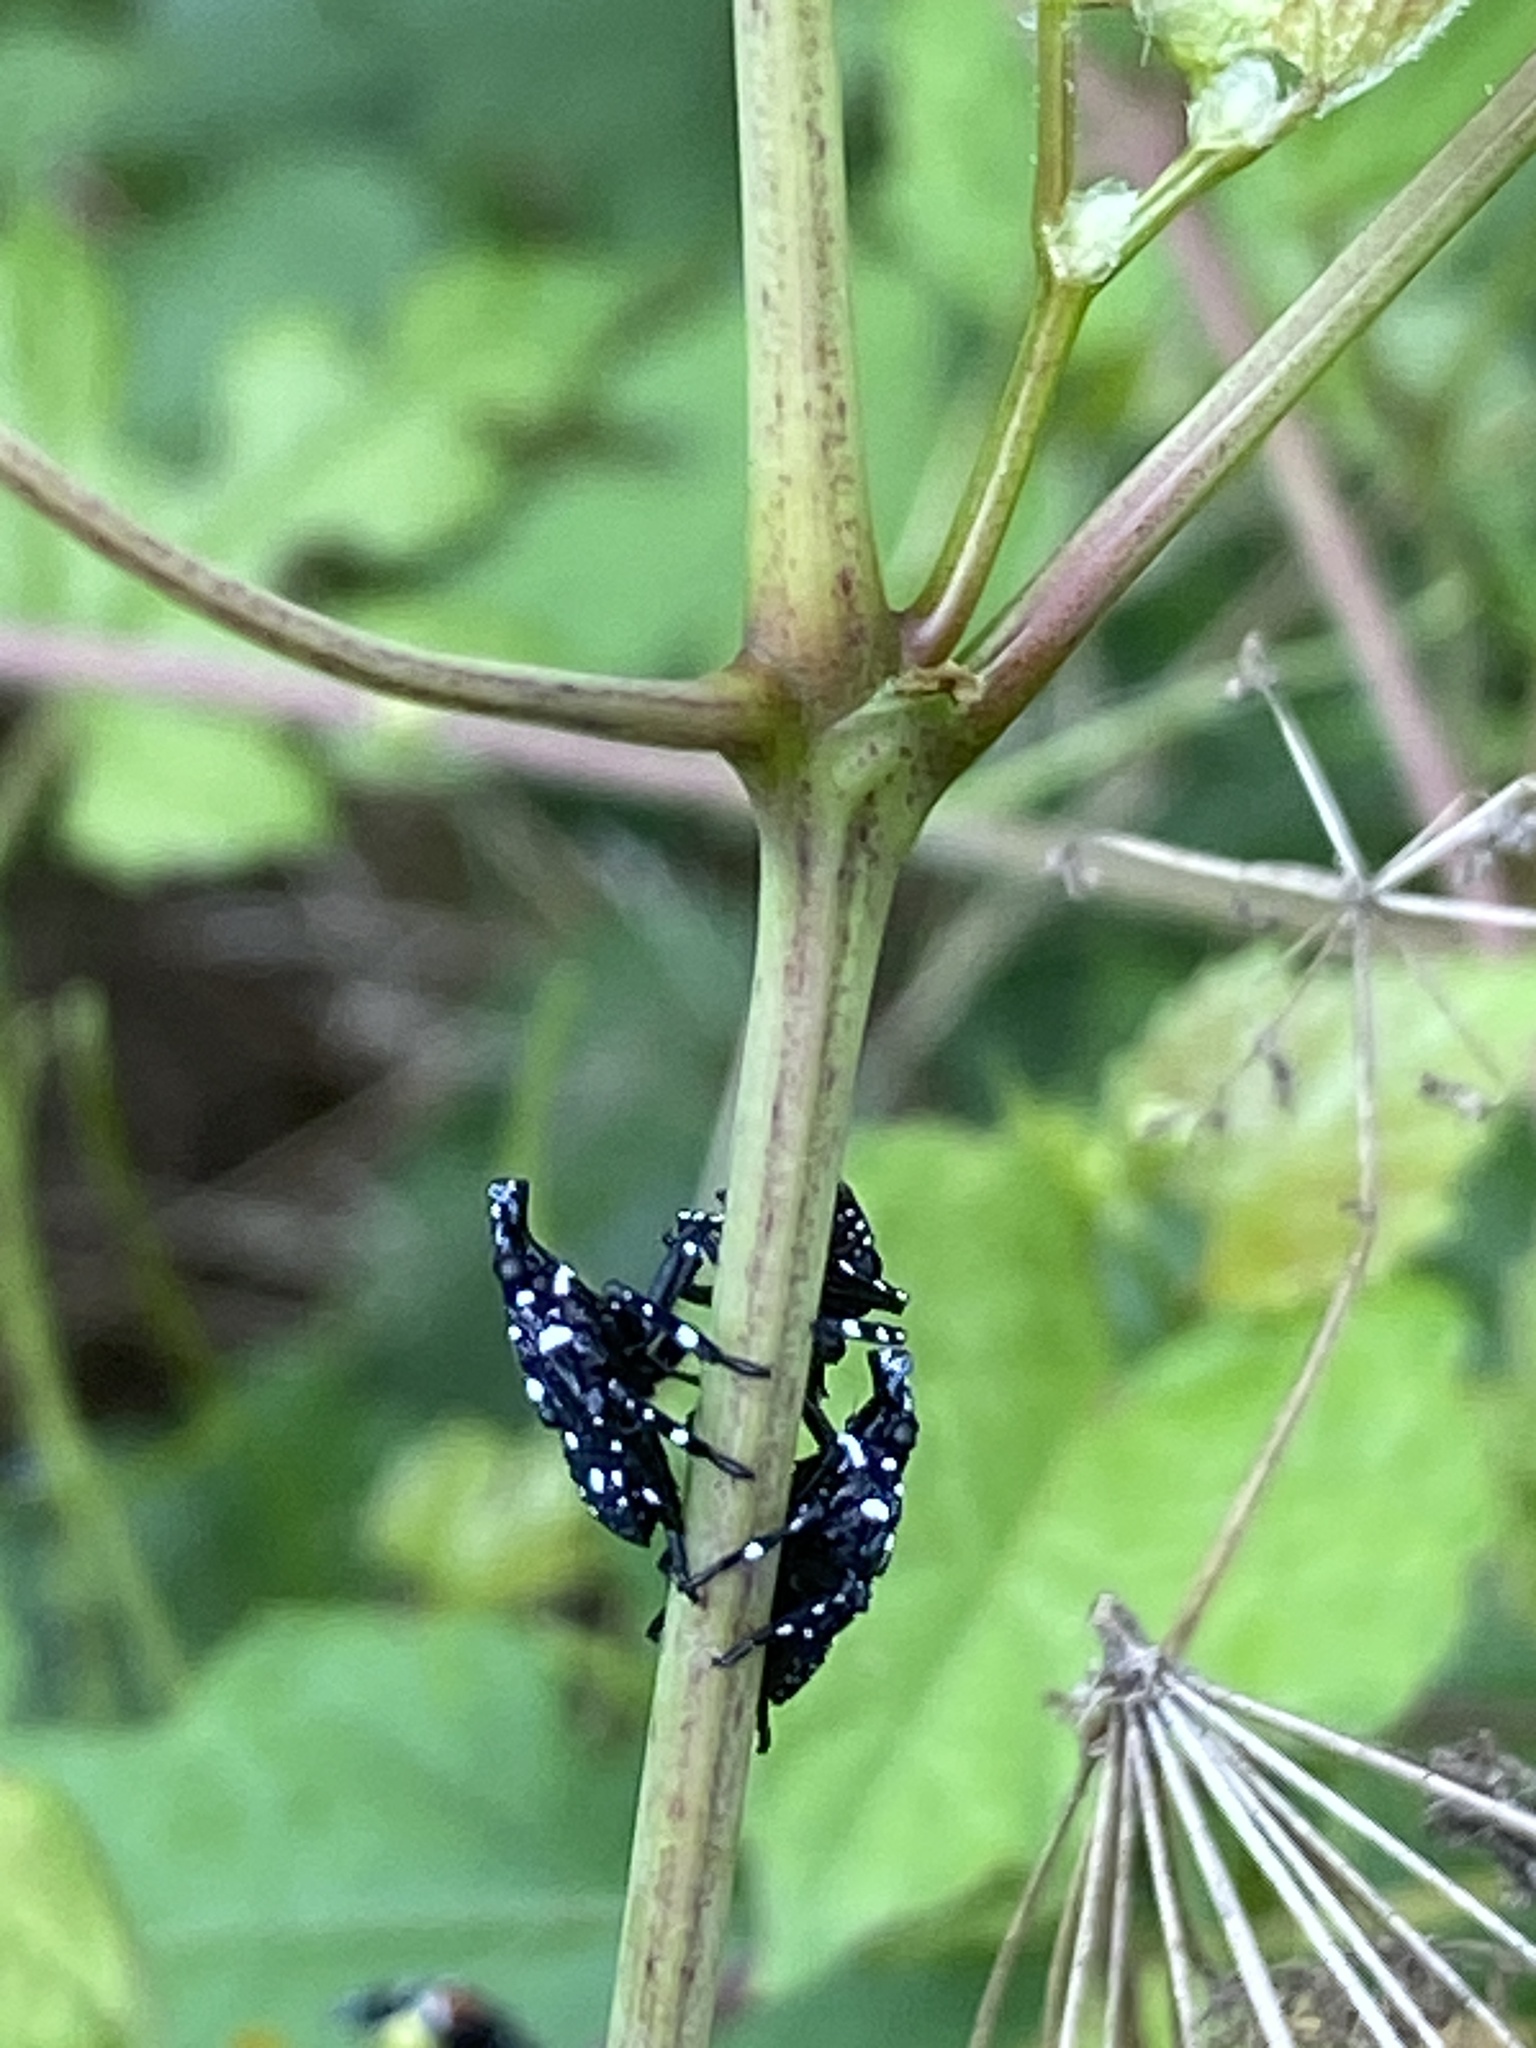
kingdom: Animalia
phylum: Arthropoda
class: Insecta
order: Hemiptera
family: Fulgoridae
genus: Lycorma
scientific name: Lycorma delicatula
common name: Spotted lanternfly
